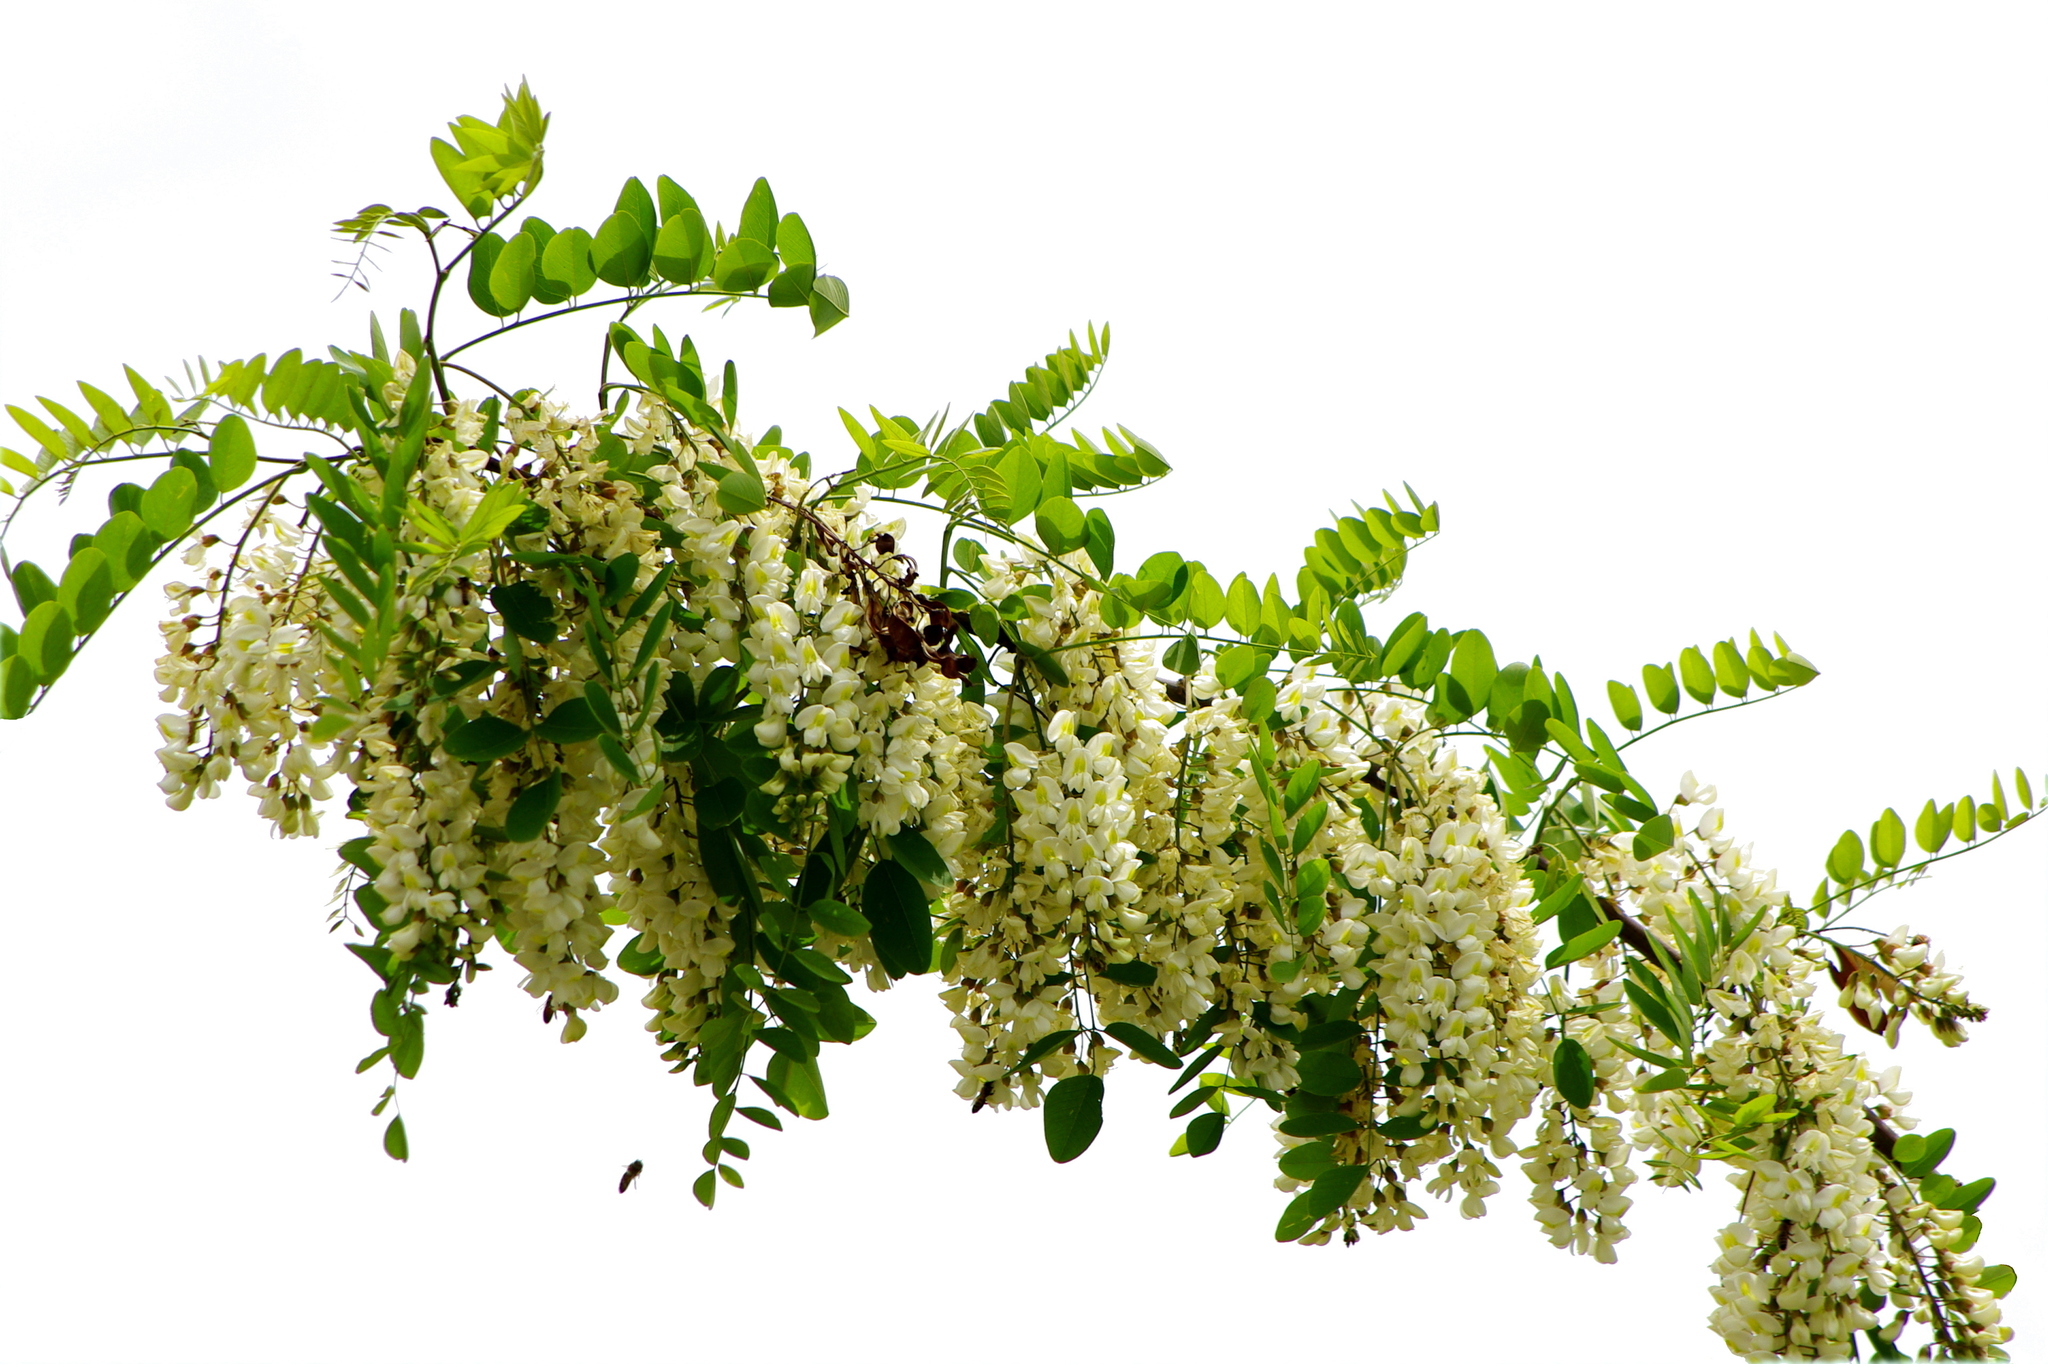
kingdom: Plantae
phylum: Tracheophyta
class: Magnoliopsida
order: Fabales
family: Fabaceae
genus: Robinia
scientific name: Robinia pseudoacacia
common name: Black locust
